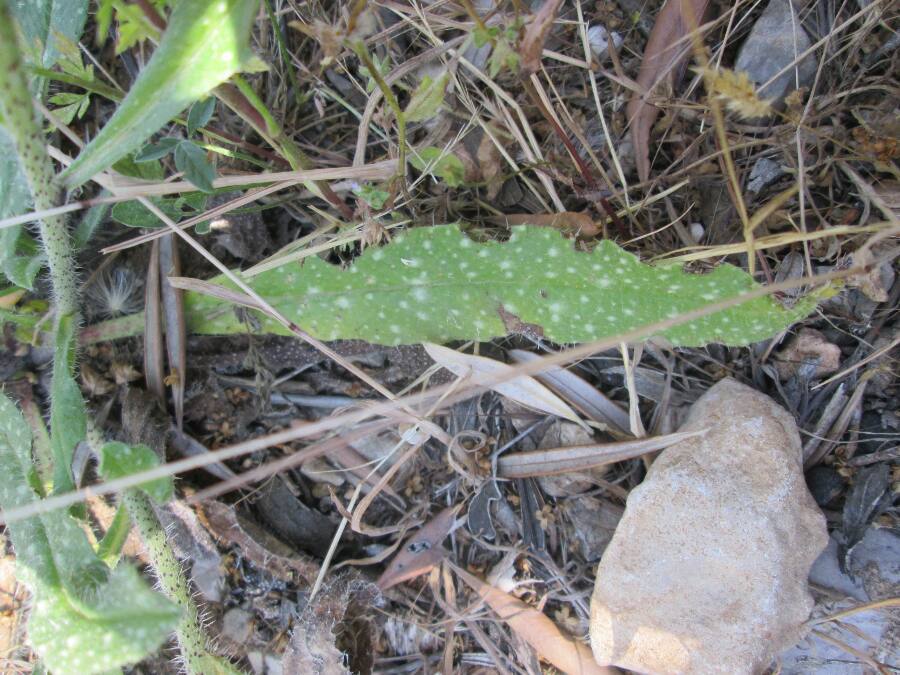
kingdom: Plantae
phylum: Tracheophyta
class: Magnoliopsida
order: Boraginales
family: Boraginaceae
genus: Echium
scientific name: Echium vulgare
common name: Common viper's bugloss
